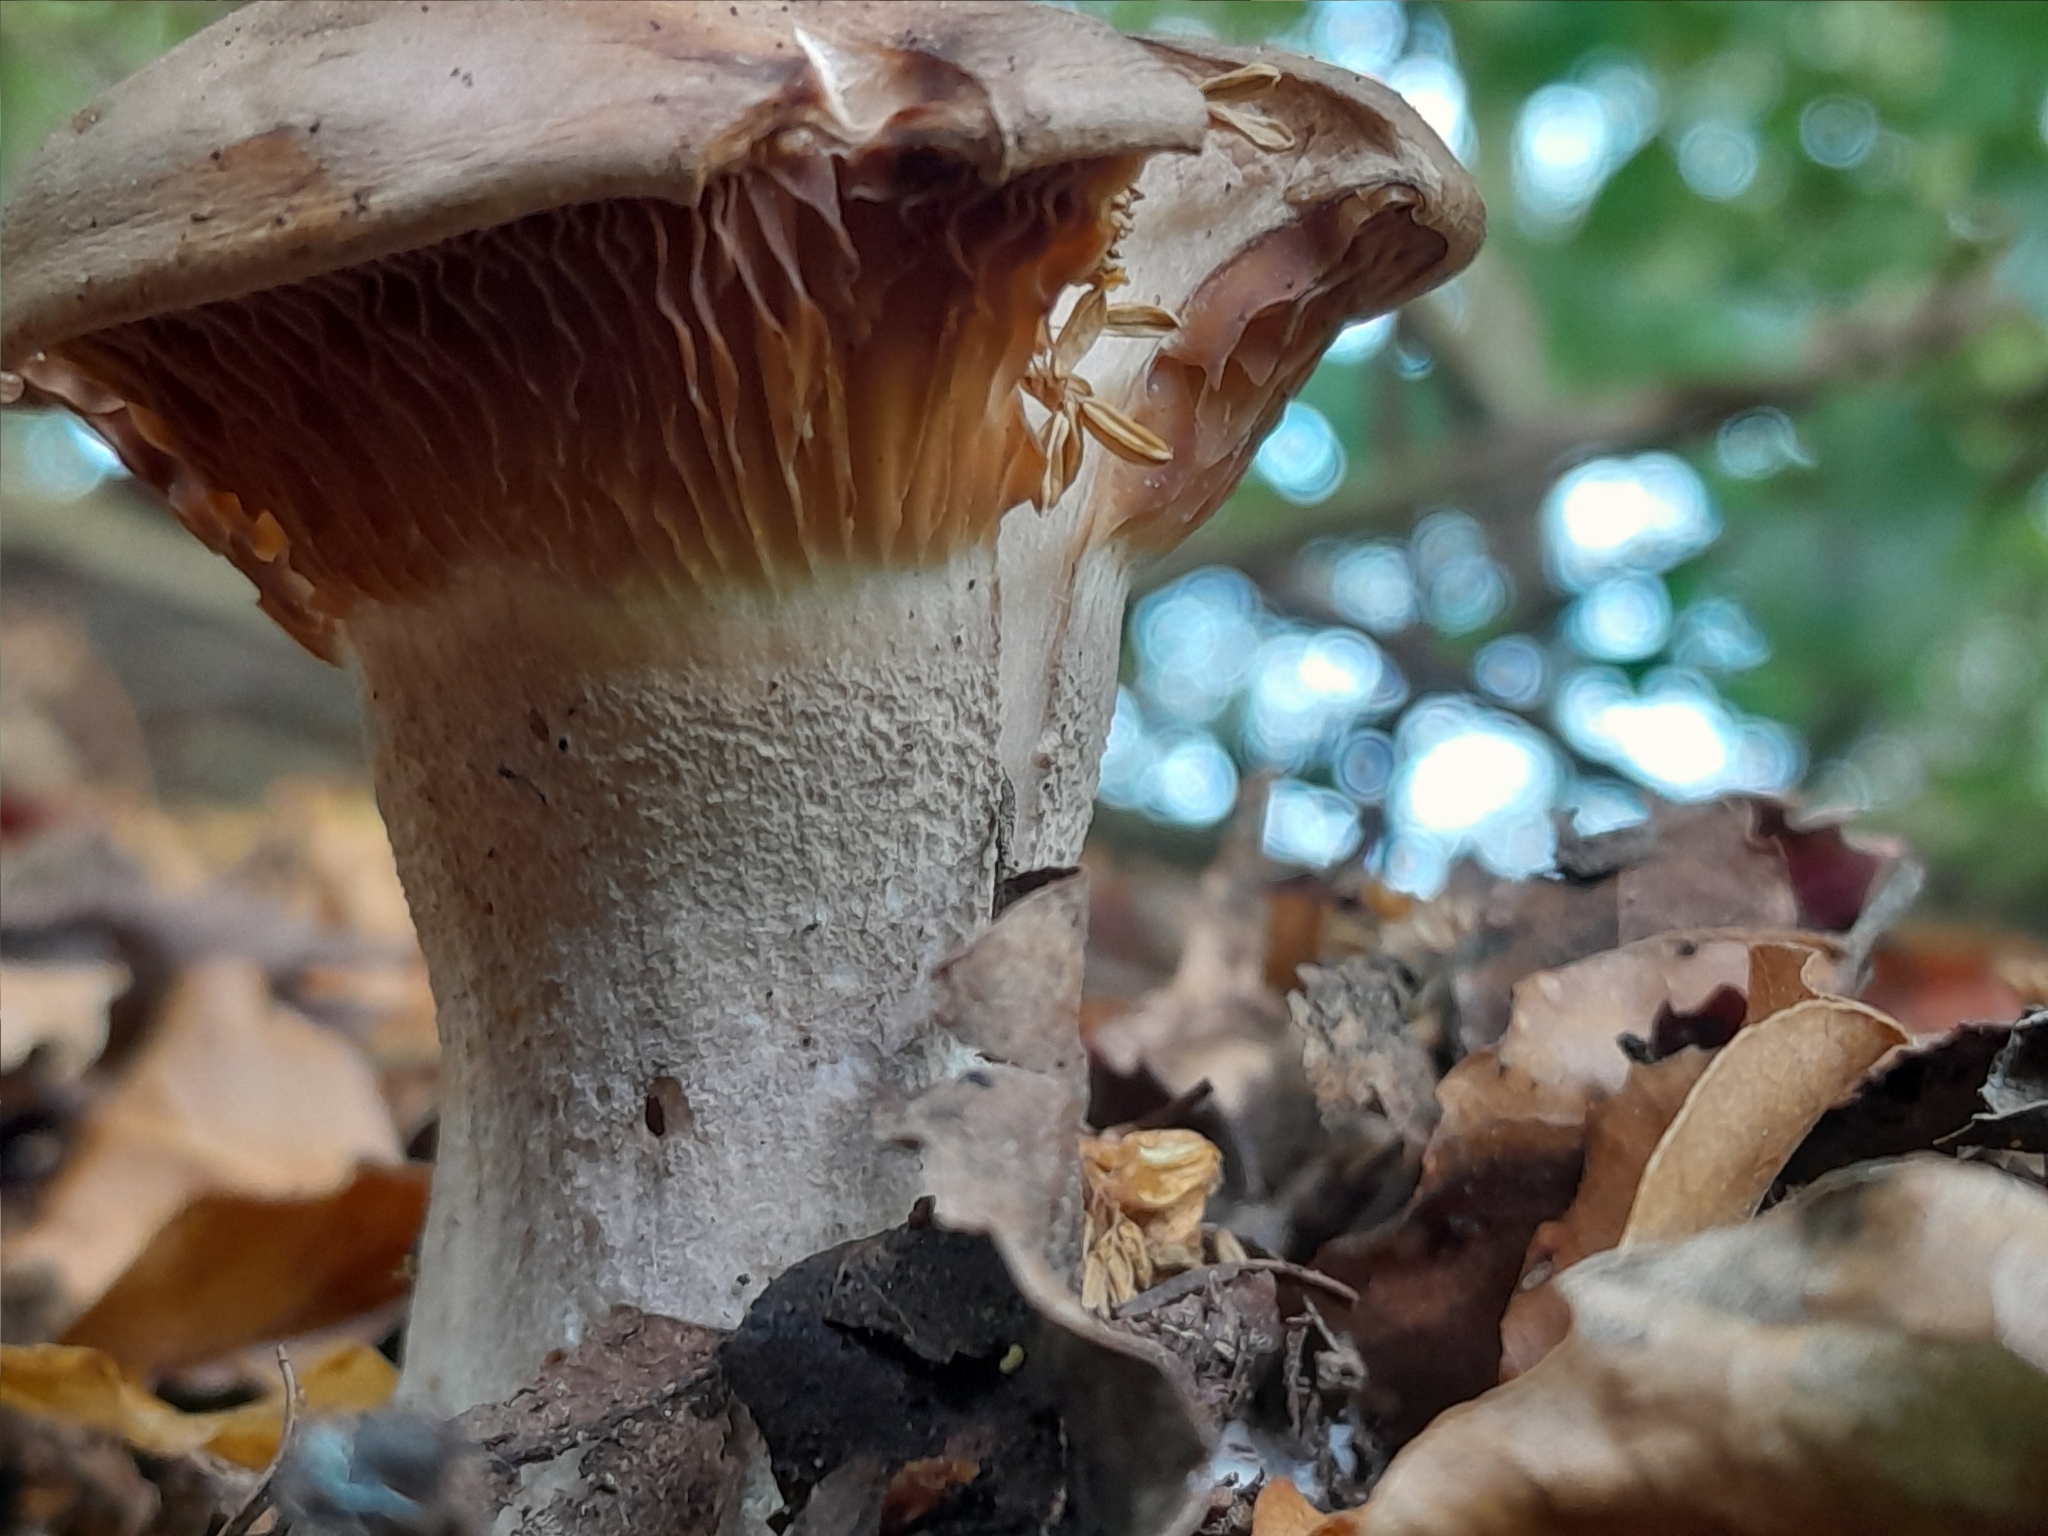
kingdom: Fungi
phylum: Basidiomycota
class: Agaricomycetes
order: Agaricales
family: Tricholomataceae
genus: Clitocybe
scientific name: Clitocybe nebularis
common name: Clouded agaric
